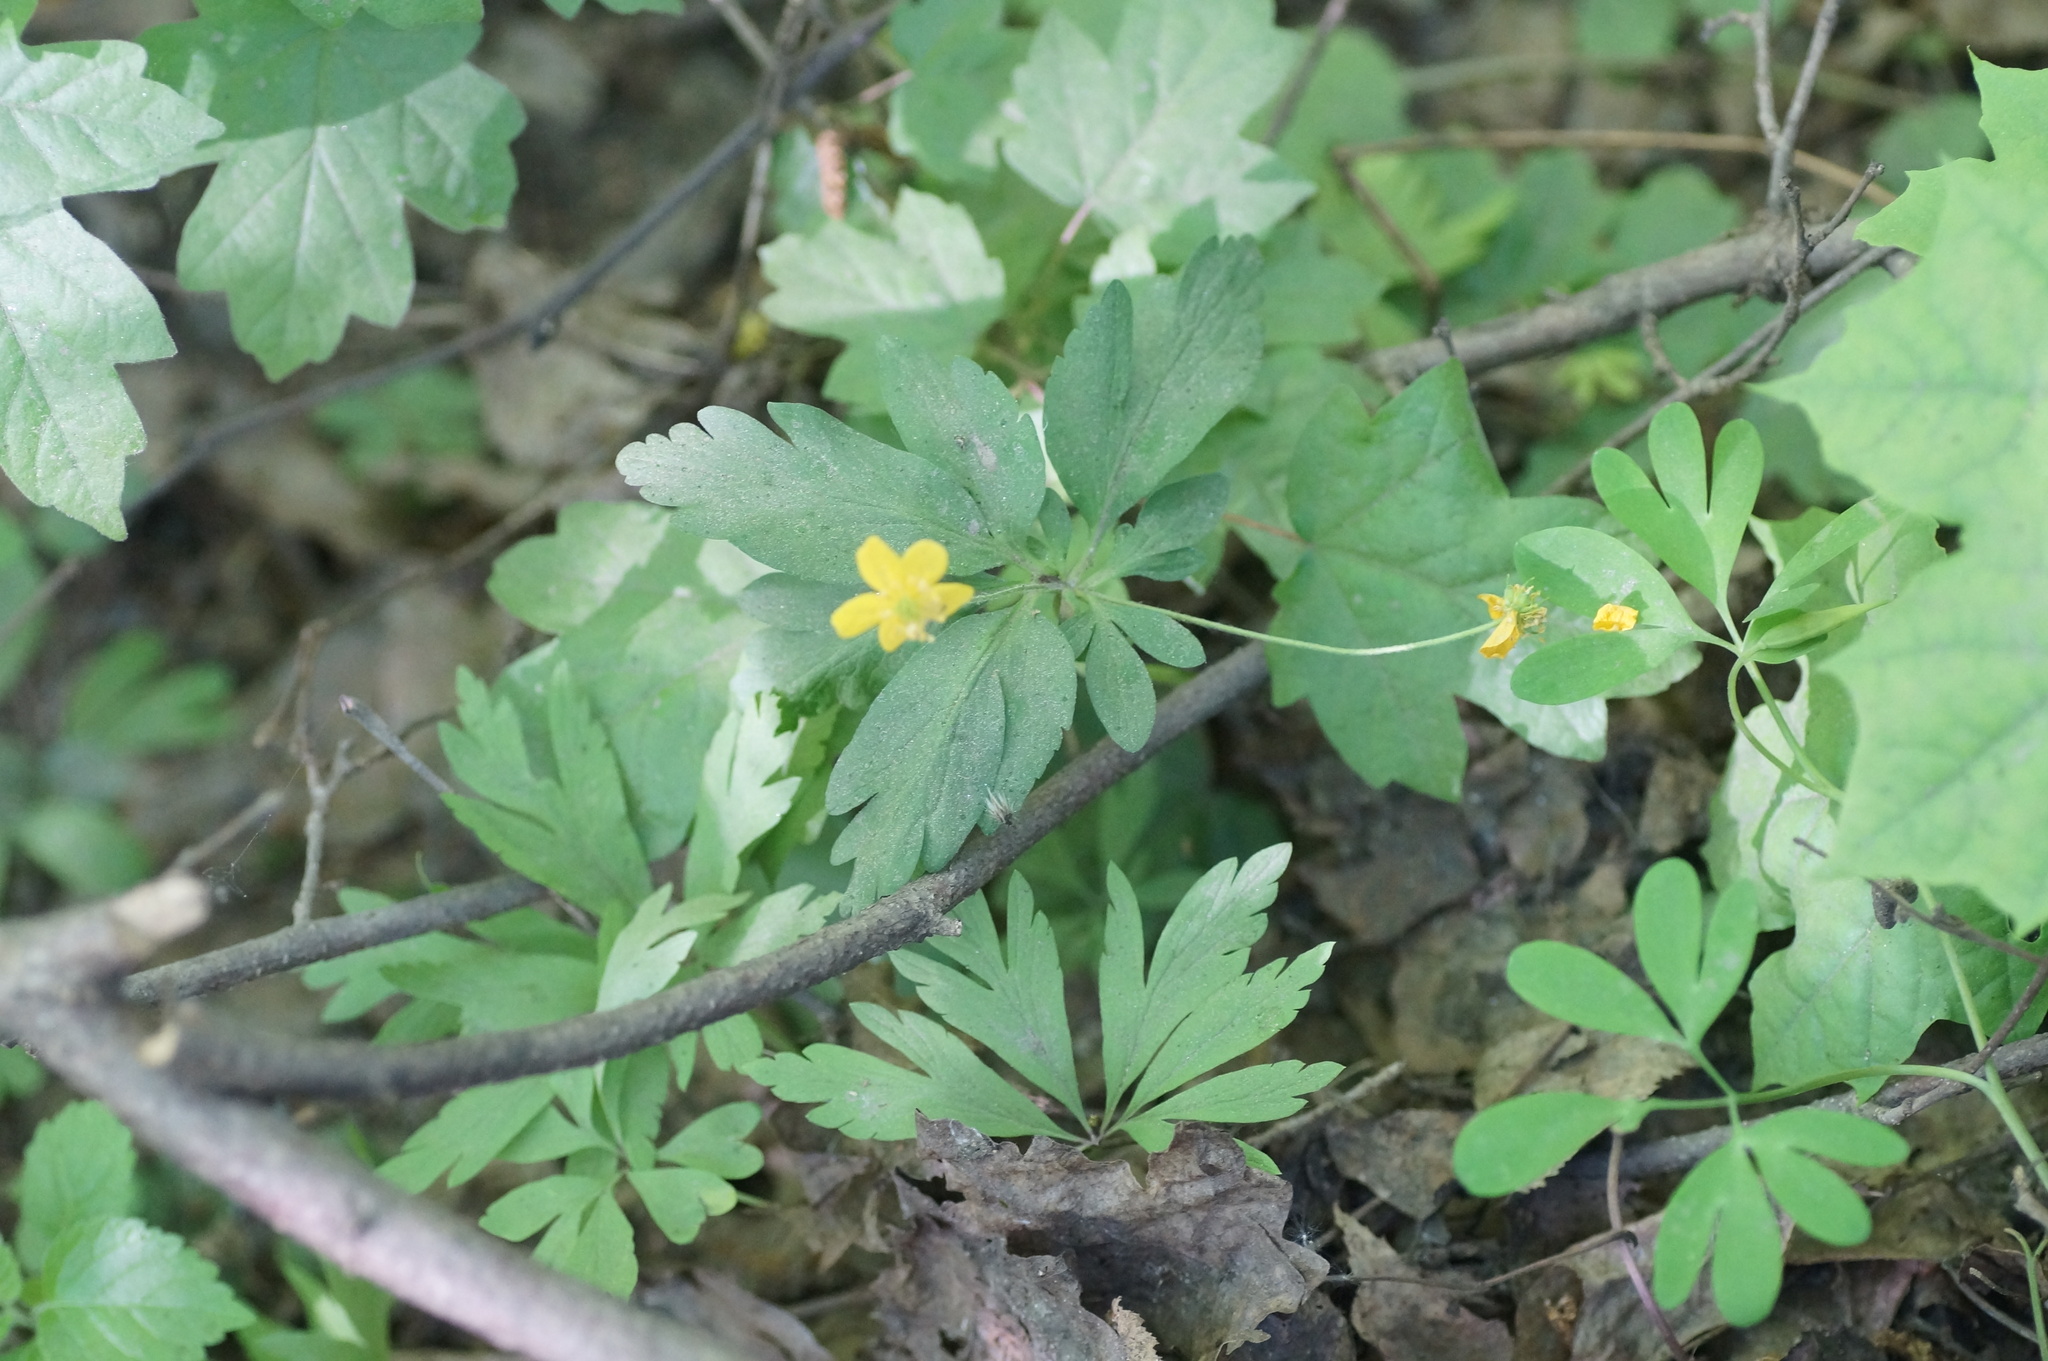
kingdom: Plantae
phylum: Tracheophyta
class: Magnoliopsida
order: Ranunculales
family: Ranunculaceae
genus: Anemone
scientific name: Anemone ranunculoides
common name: Yellow anemone
